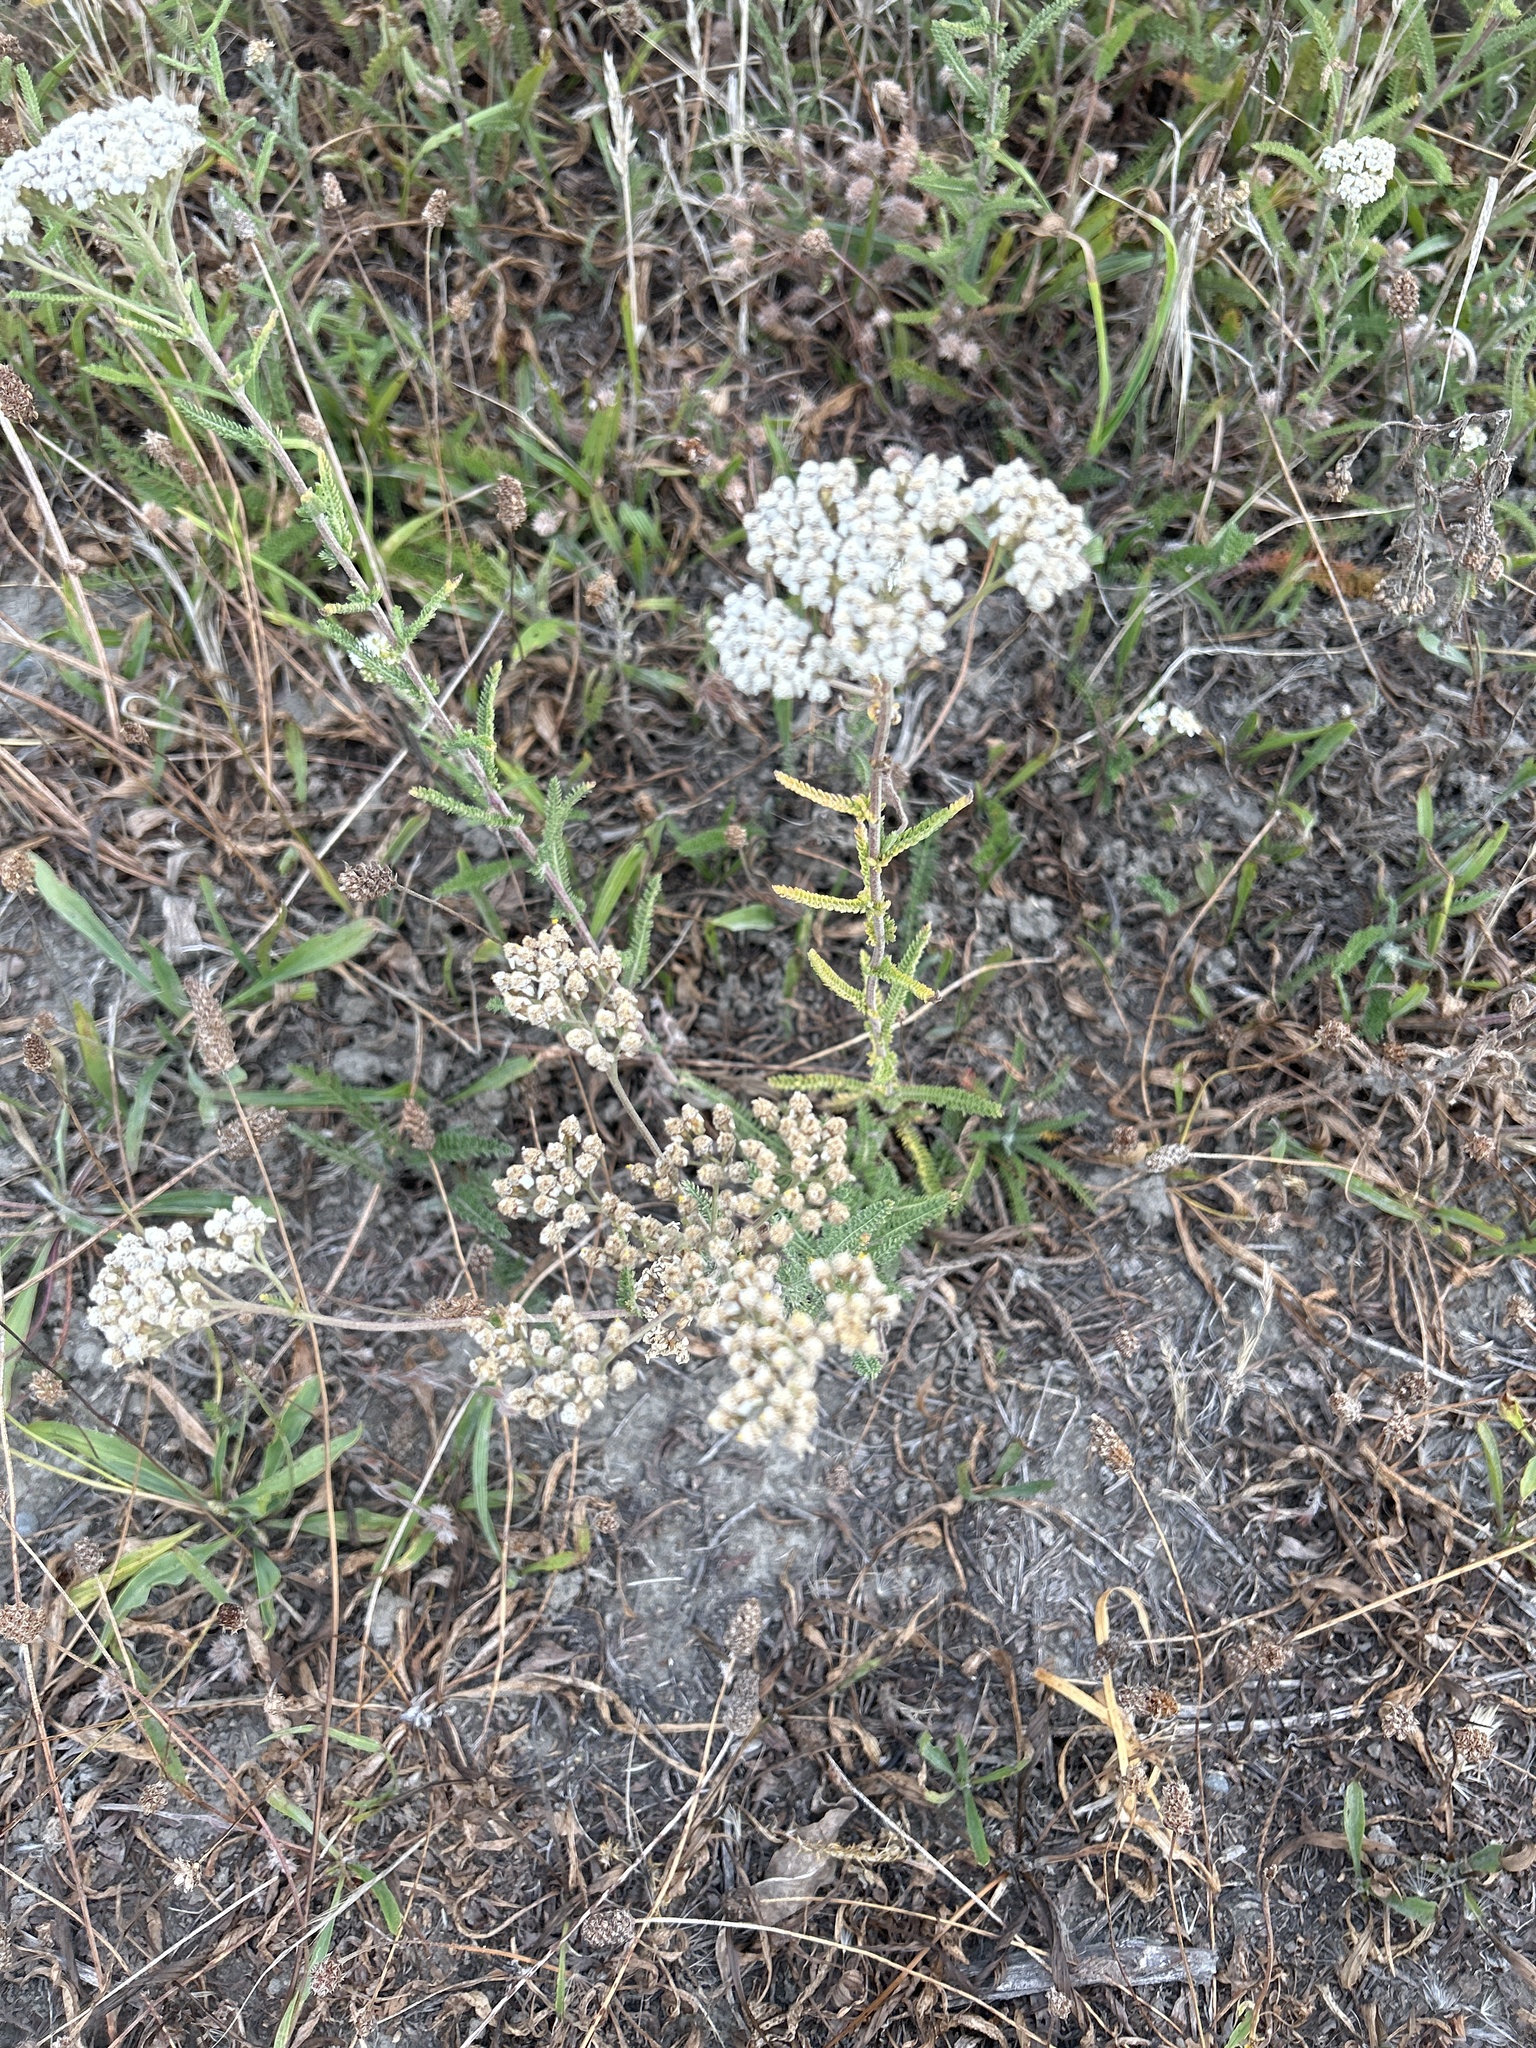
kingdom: Plantae
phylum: Tracheophyta
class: Magnoliopsida
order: Asterales
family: Asteraceae
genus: Achillea
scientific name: Achillea millefolium
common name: Yarrow
